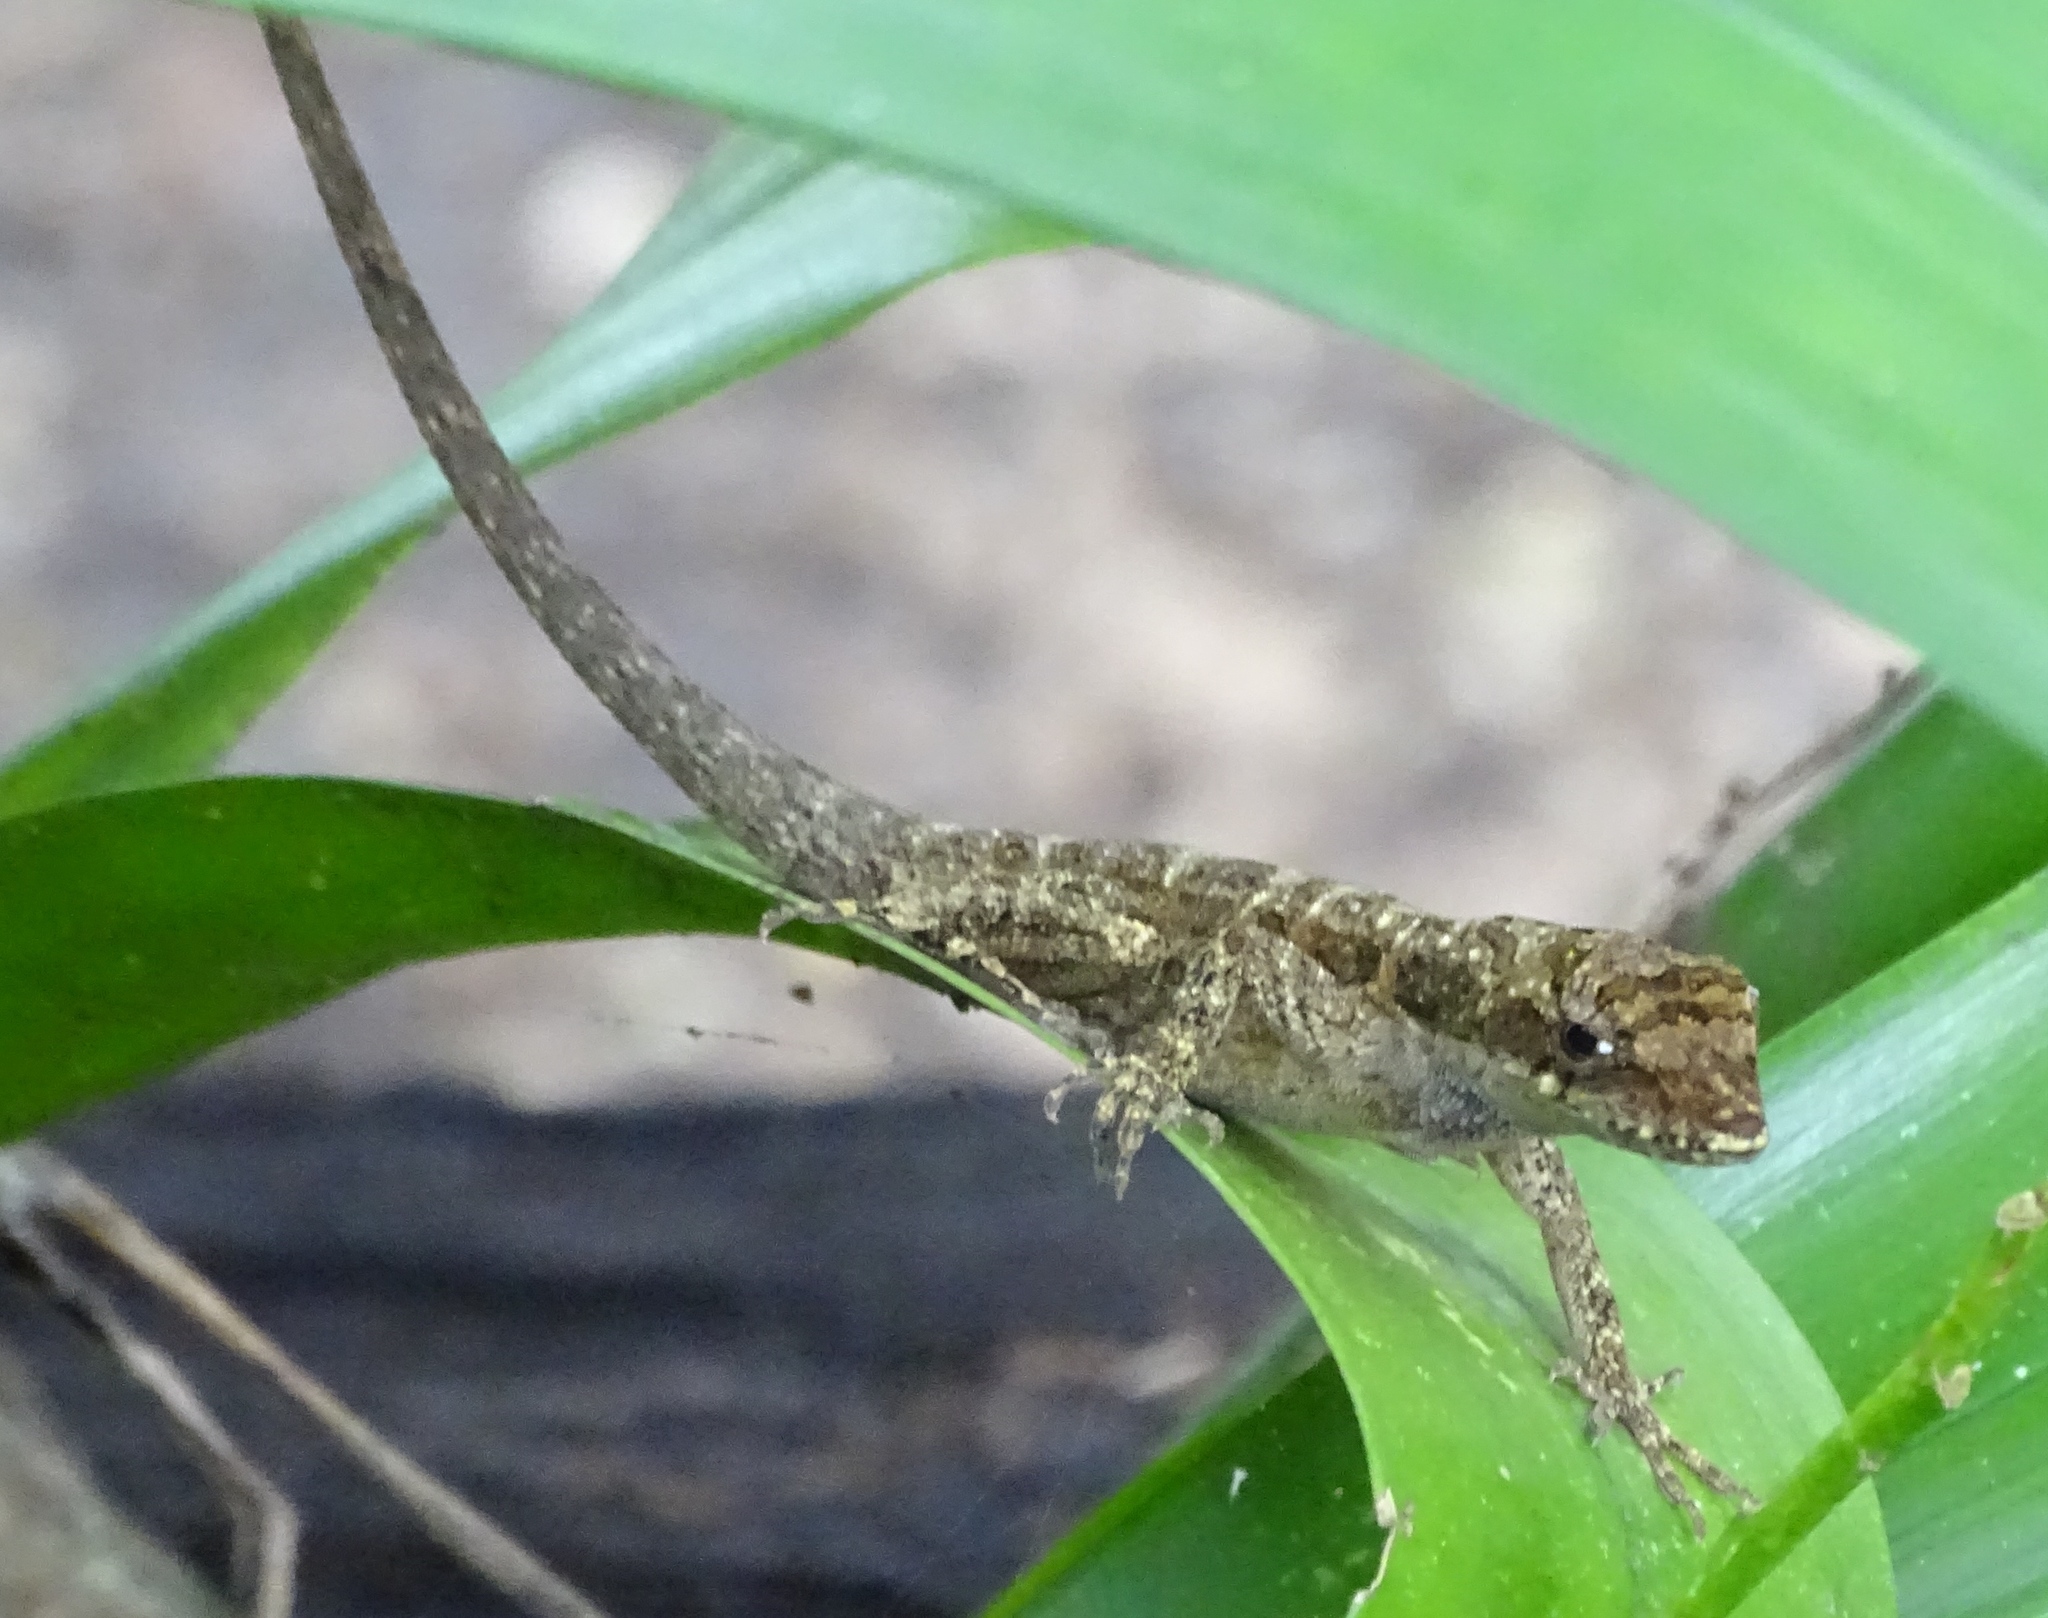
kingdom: Animalia
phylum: Chordata
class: Squamata
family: Dactyloidae
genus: Anolis
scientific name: Anolis lemurinus
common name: Ghost anole
